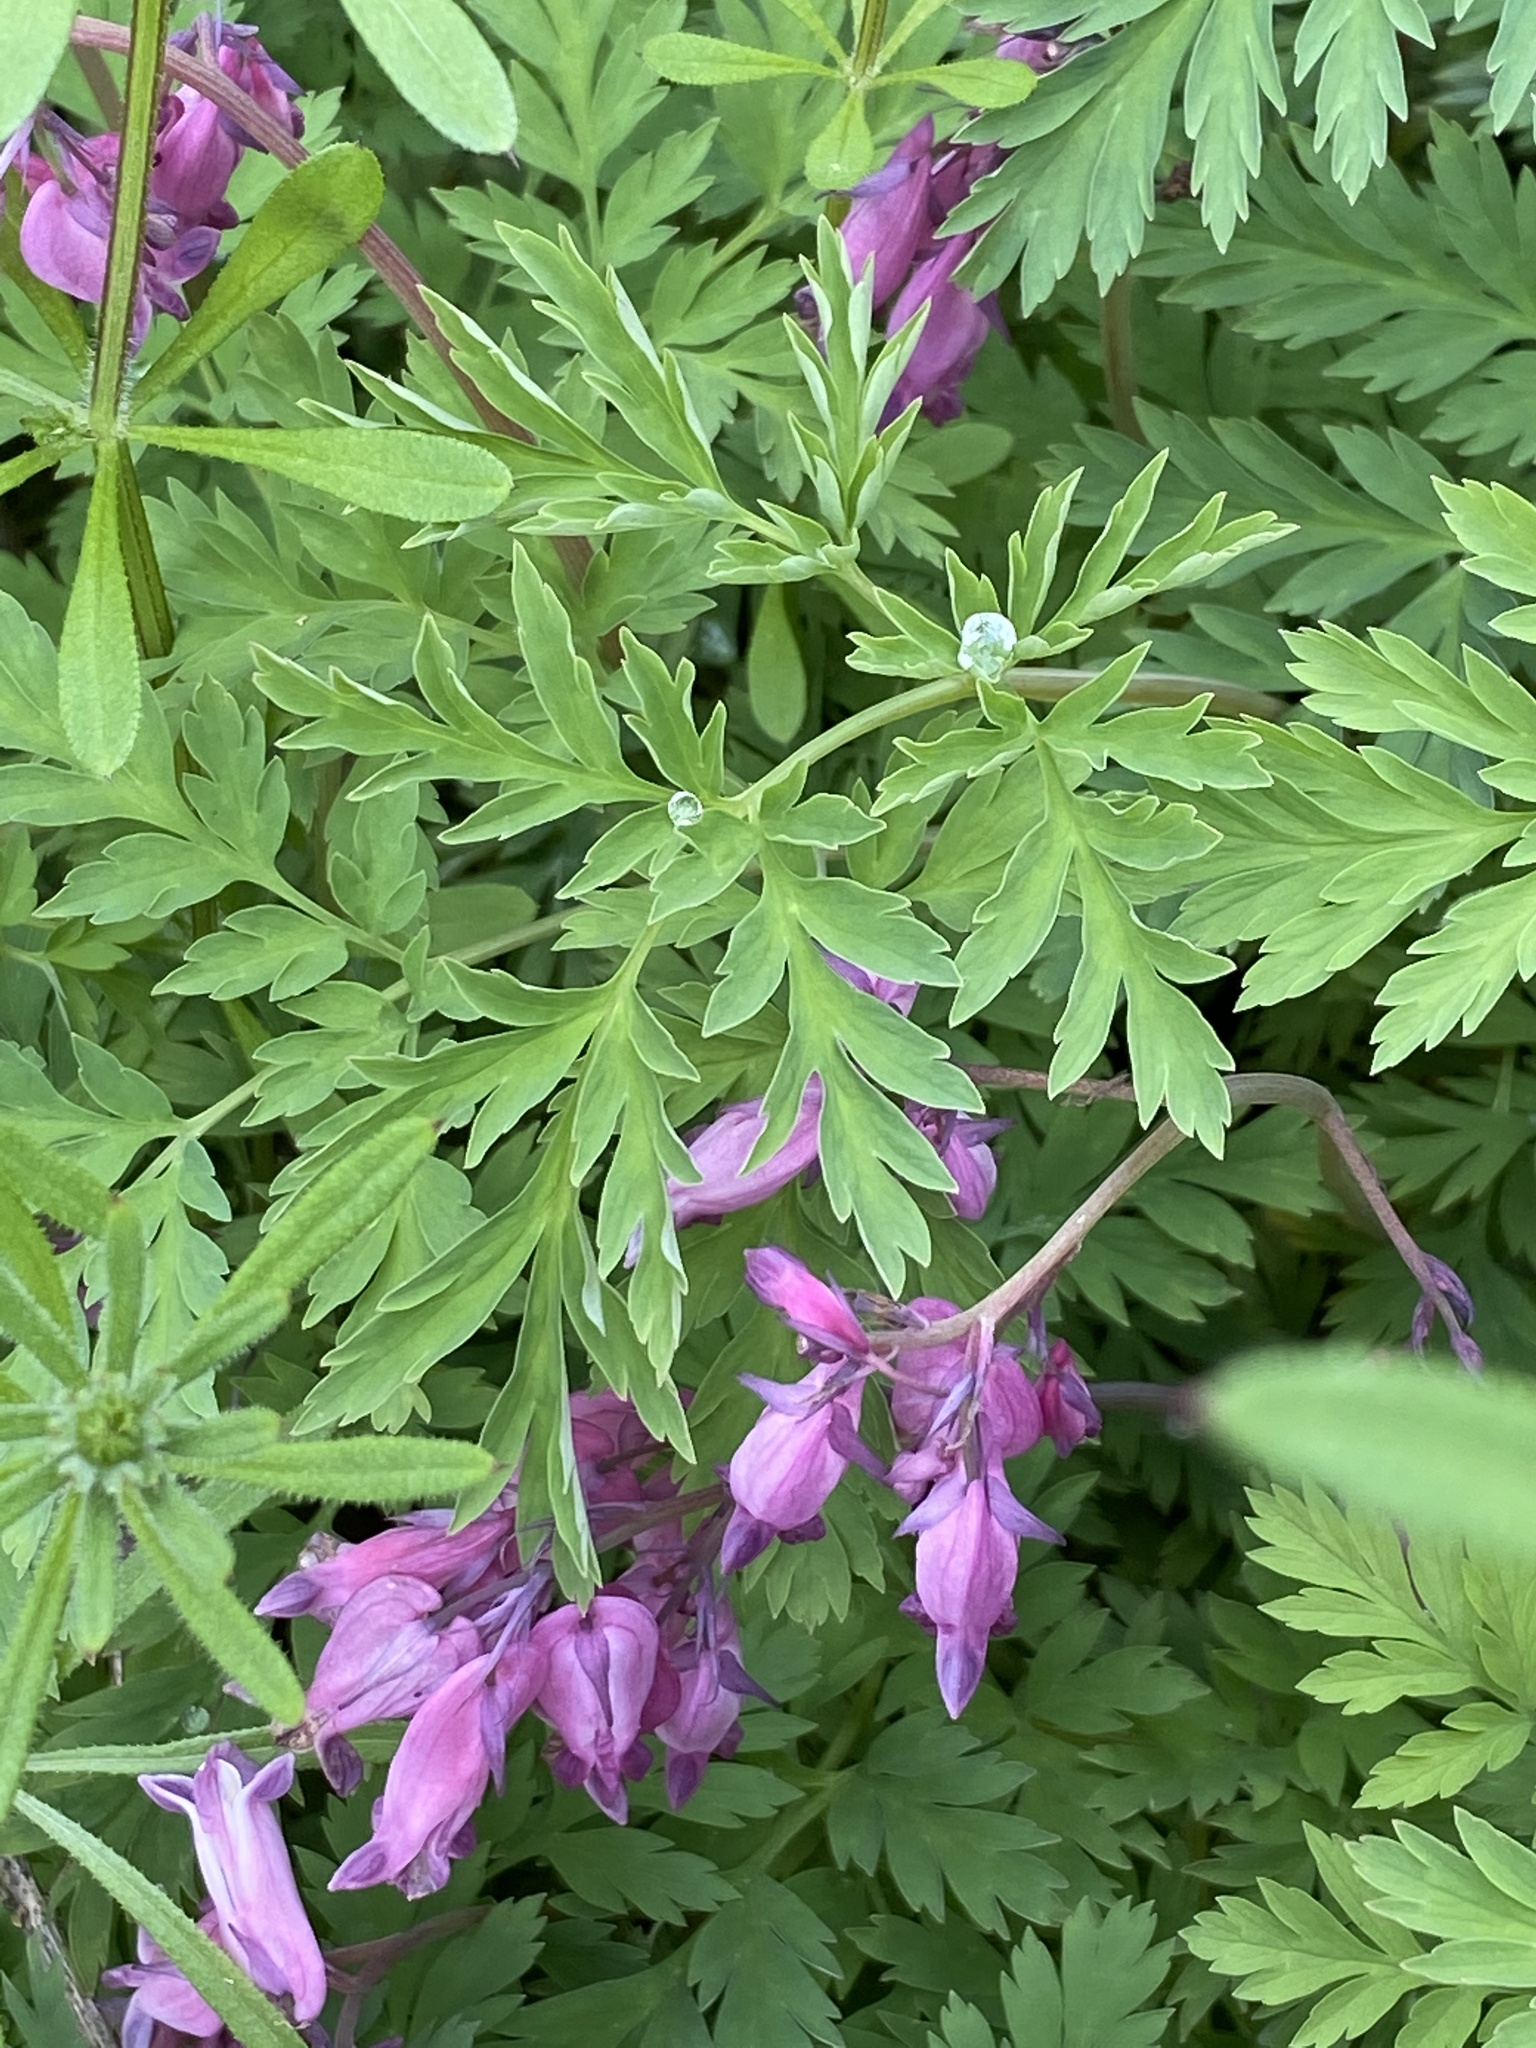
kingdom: Plantae
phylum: Tracheophyta
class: Magnoliopsida
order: Ranunculales
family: Papaveraceae
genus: Dicentra
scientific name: Dicentra eximia
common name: Turkey-corn
